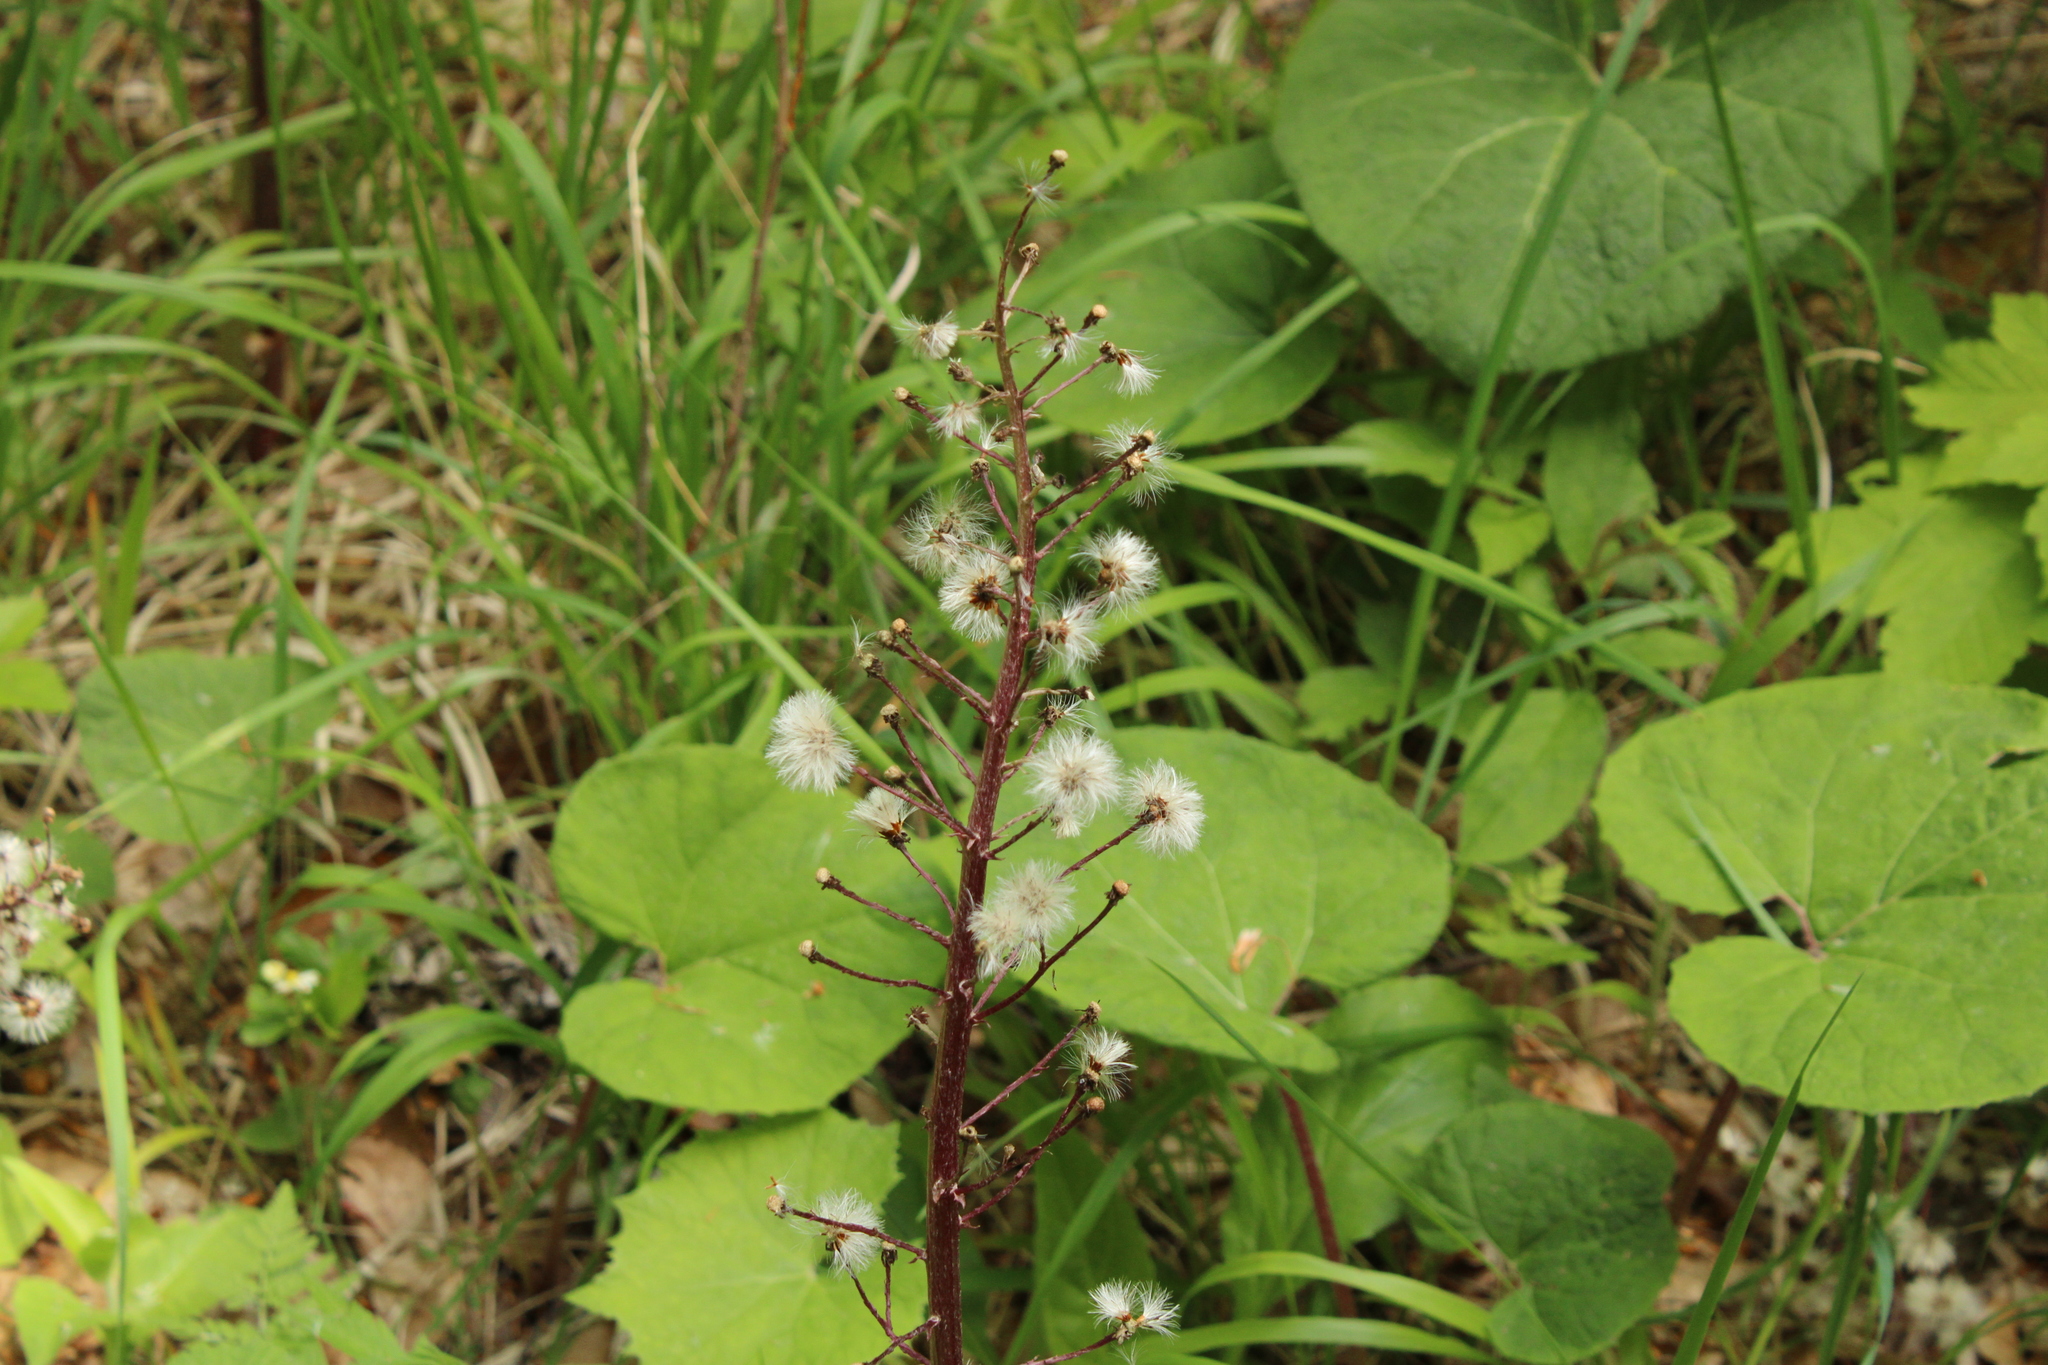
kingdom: Plantae
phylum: Tracheophyta
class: Magnoliopsida
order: Asterales
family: Asteraceae
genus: Petasites
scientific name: Petasites hybridus
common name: Butterbur
